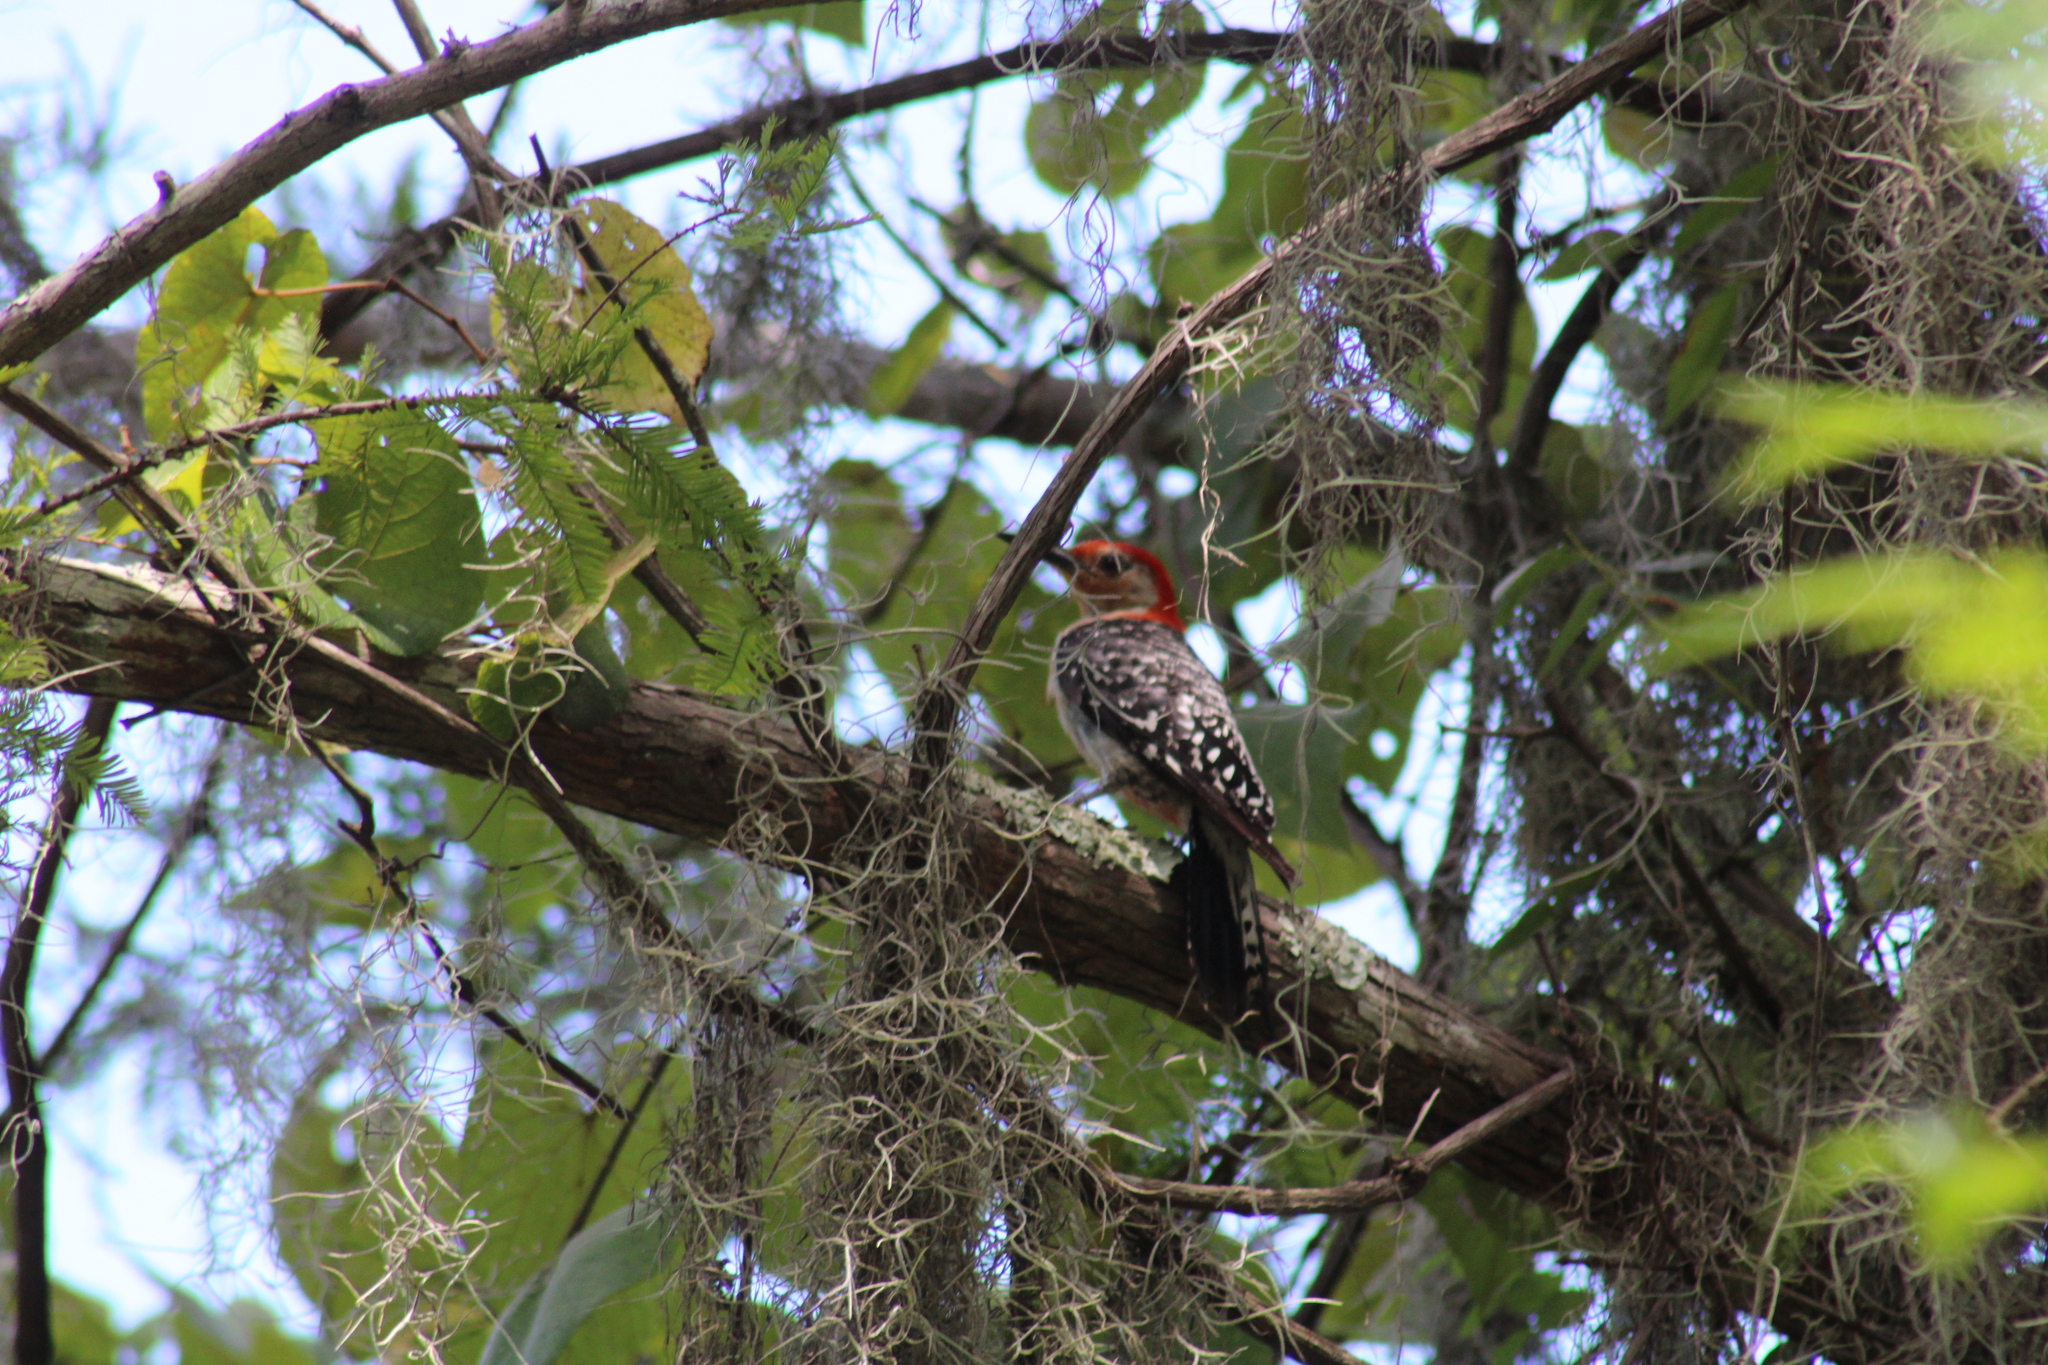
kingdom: Animalia
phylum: Chordata
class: Aves
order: Piciformes
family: Picidae
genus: Melanerpes
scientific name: Melanerpes carolinus
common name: Red-bellied woodpecker
